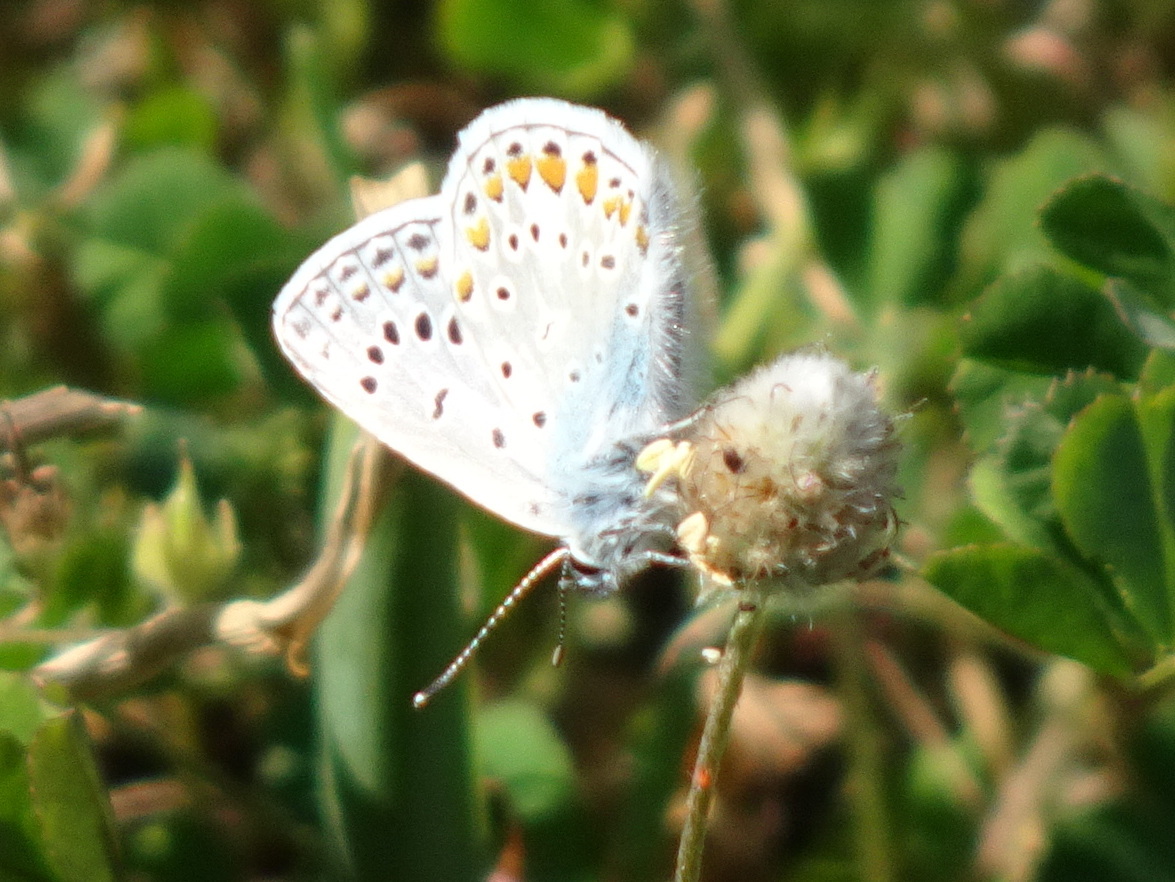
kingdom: Animalia
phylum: Arthropoda
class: Insecta
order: Lepidoptera
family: Lycaenidae
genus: Polyommatus
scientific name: Polyommatus icarus
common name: Common blue
